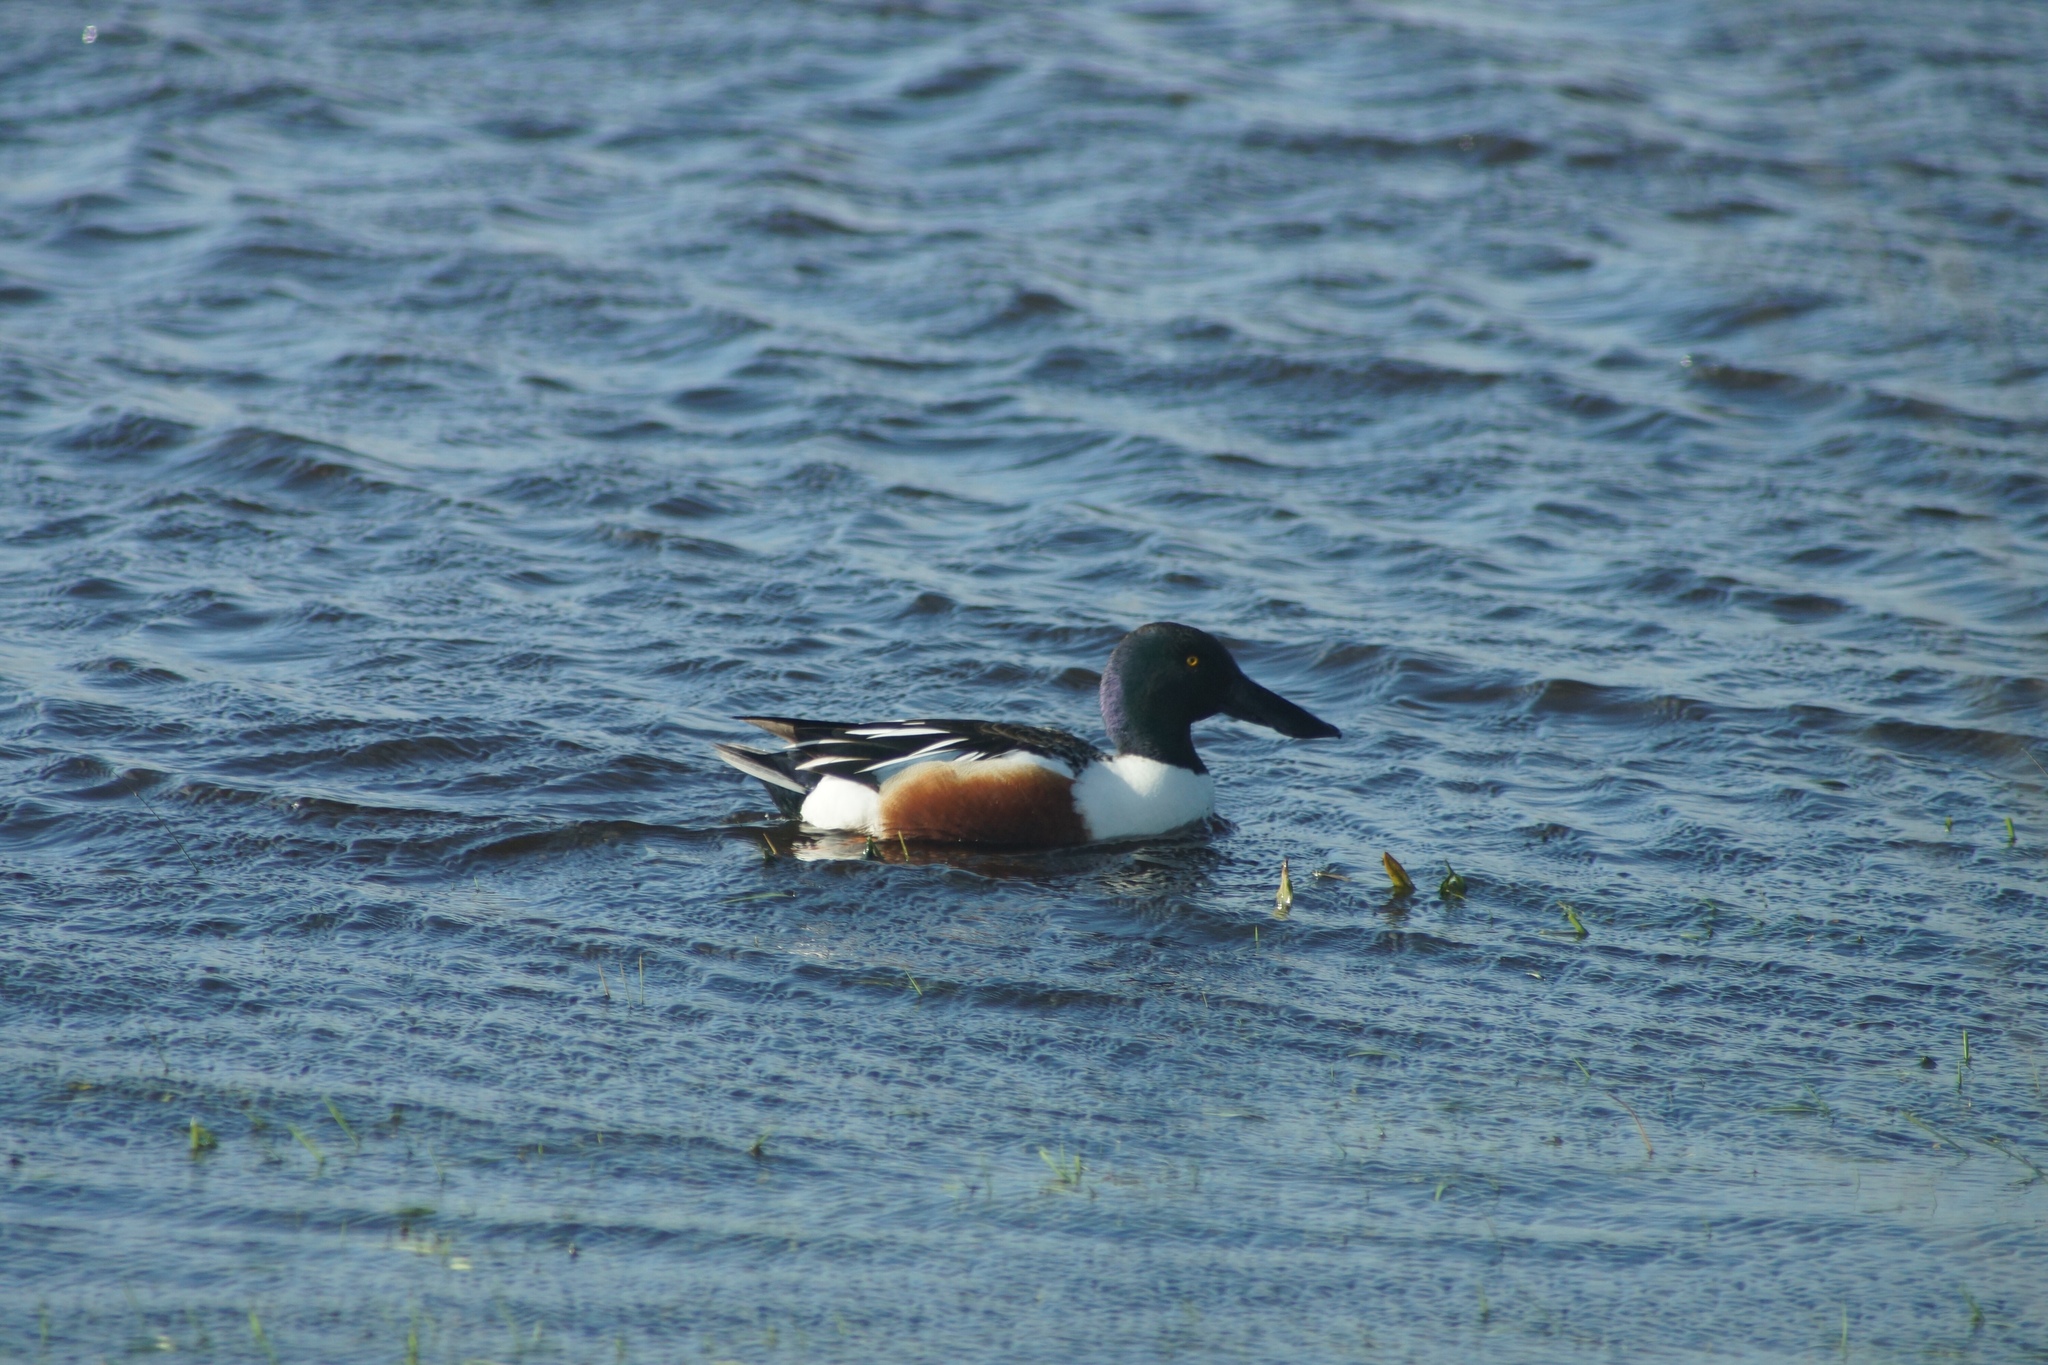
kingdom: Animalia
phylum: Chordata
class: Aves
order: Anseriformes
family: Anatidae
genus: Spatula
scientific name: Spatula clypeata
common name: Northern shoveler
